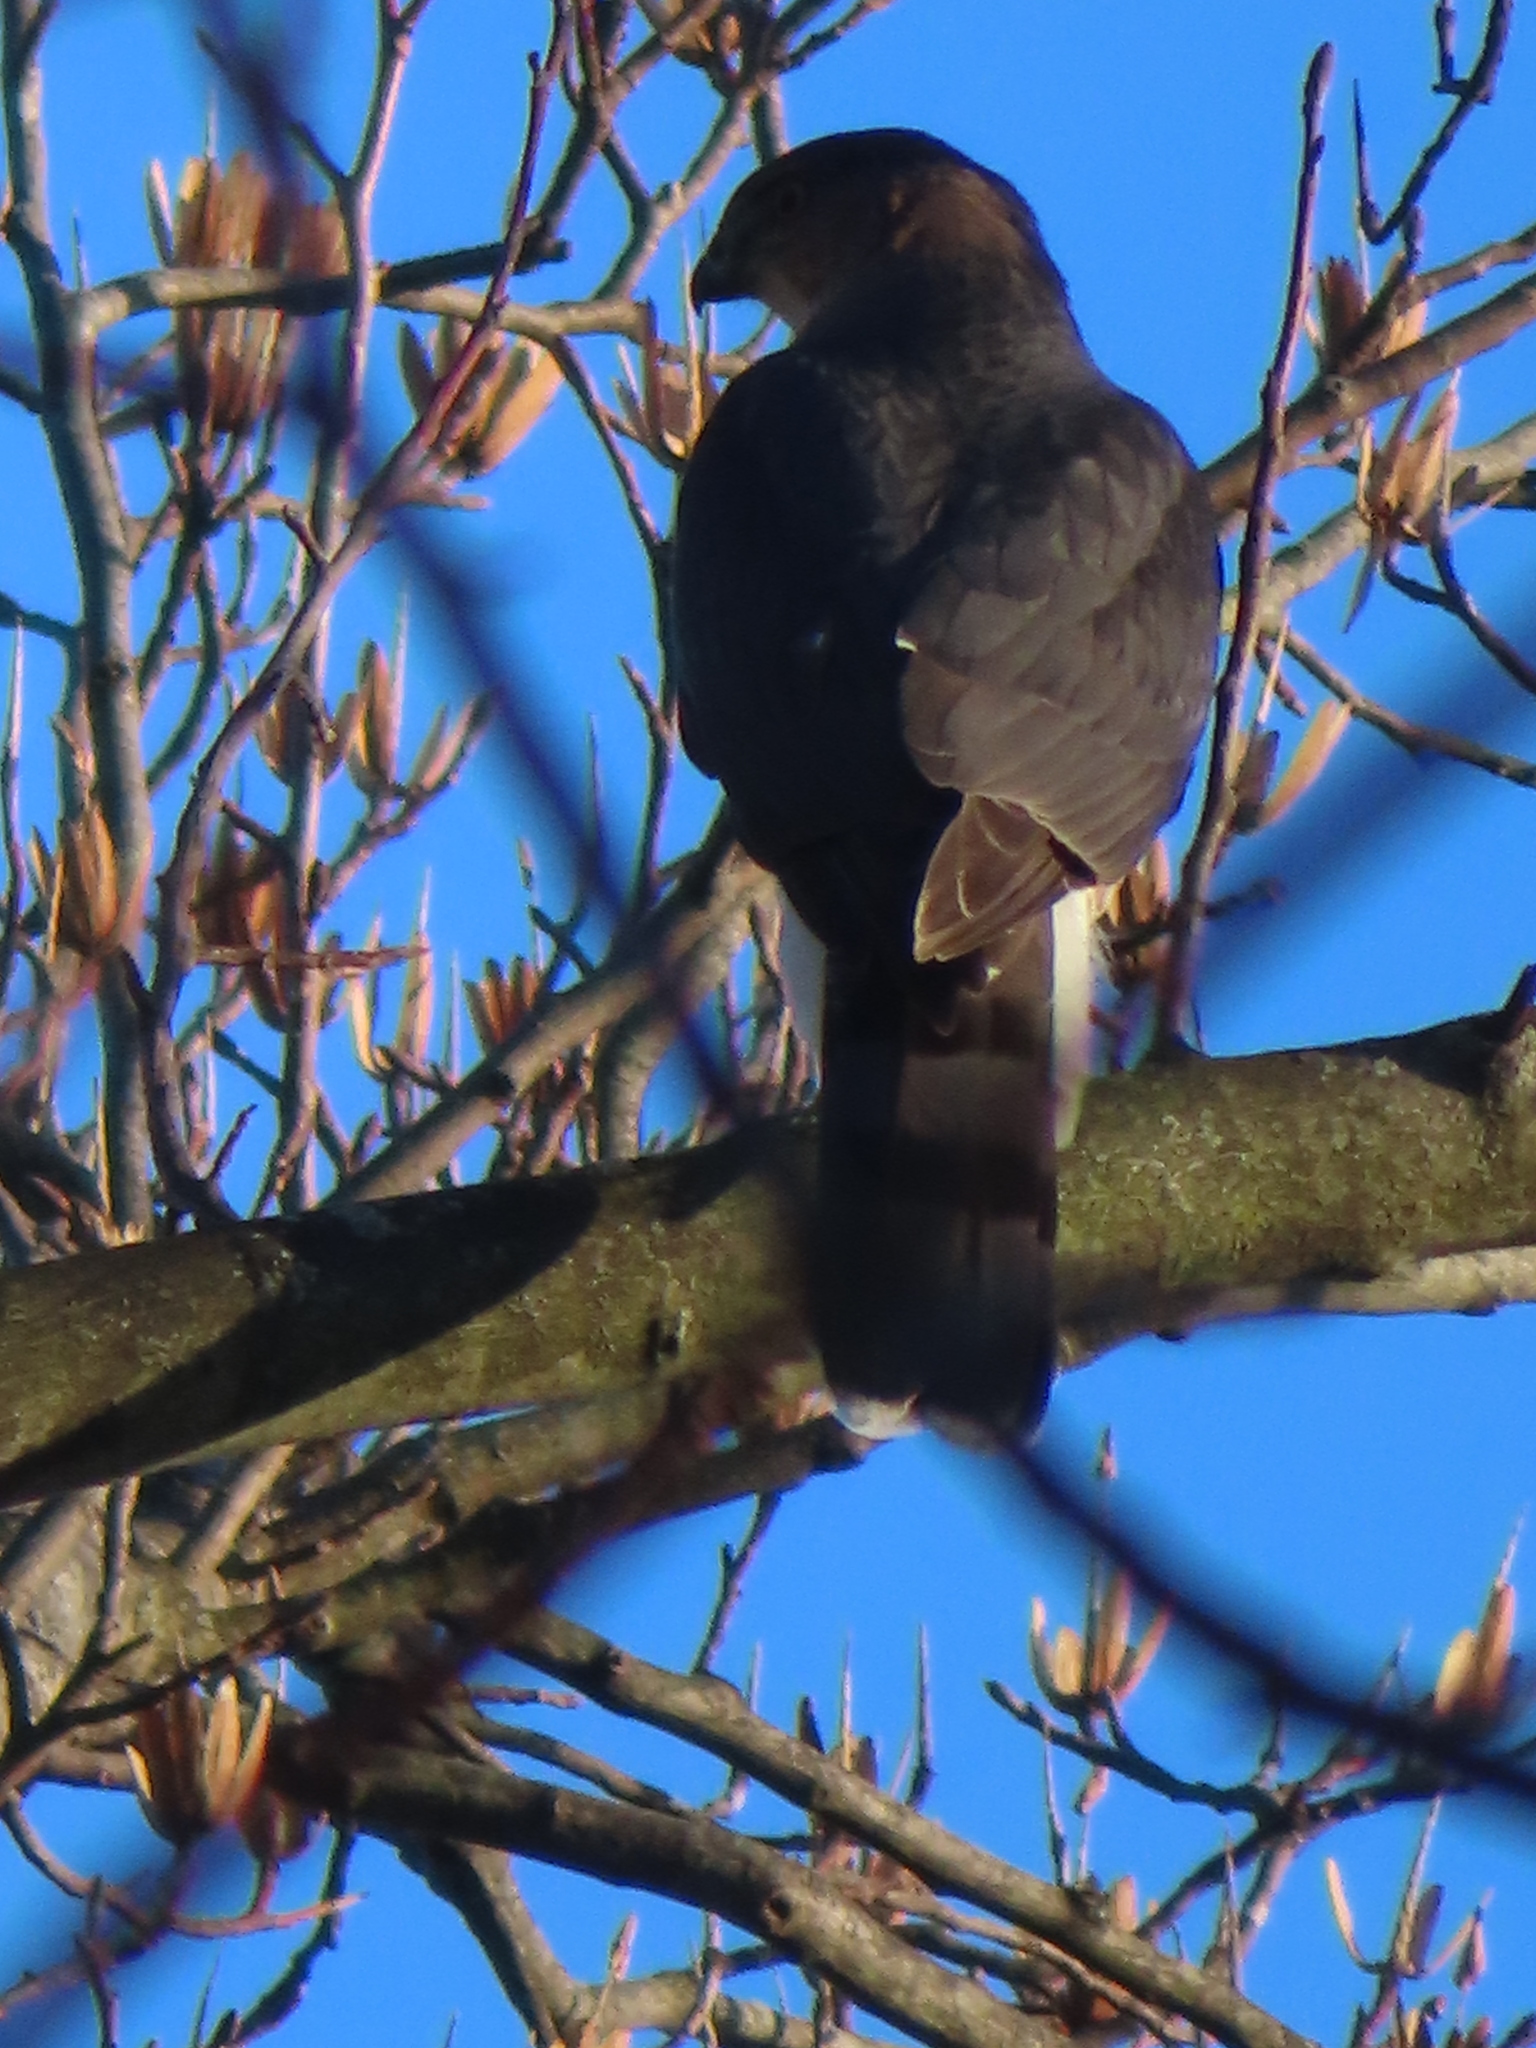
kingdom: Animalia
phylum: Chordata
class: Aves
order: Accipitriformes
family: Accipitridae
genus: Accipiter
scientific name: Accipiter cooperii
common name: Cooper's hawk
